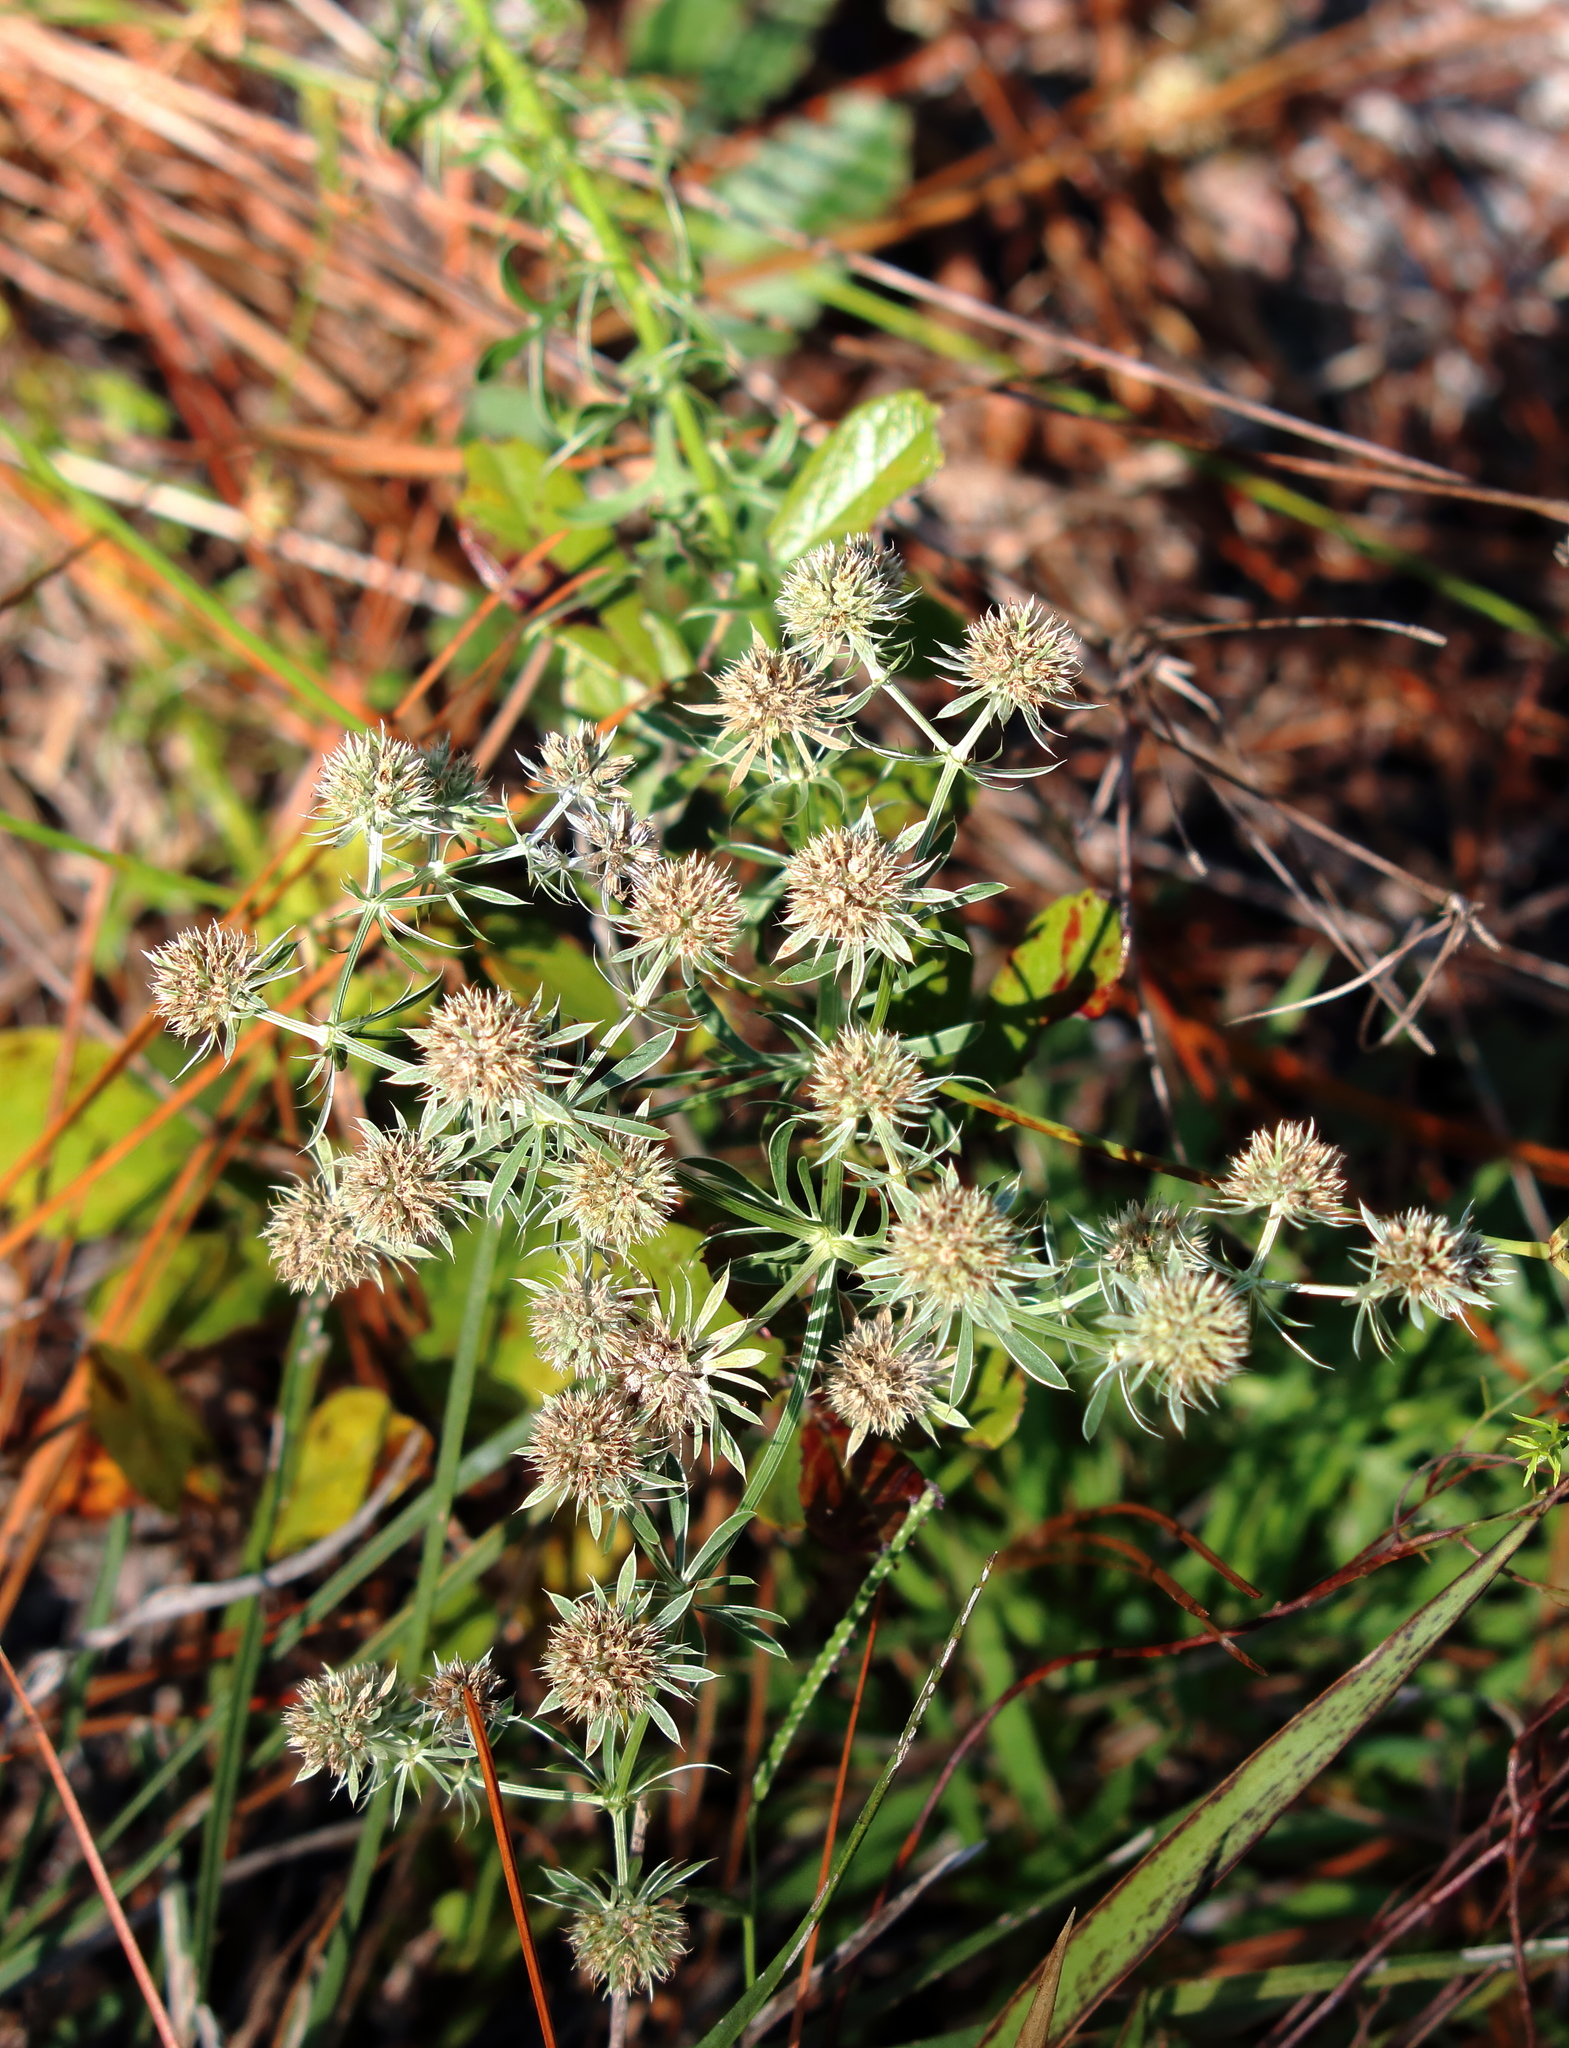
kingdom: Plantae
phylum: Tracheophyta
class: Magnoliopsida
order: Apiales
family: Apiaceae
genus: Eryngium
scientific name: Eryngium aromaticum
